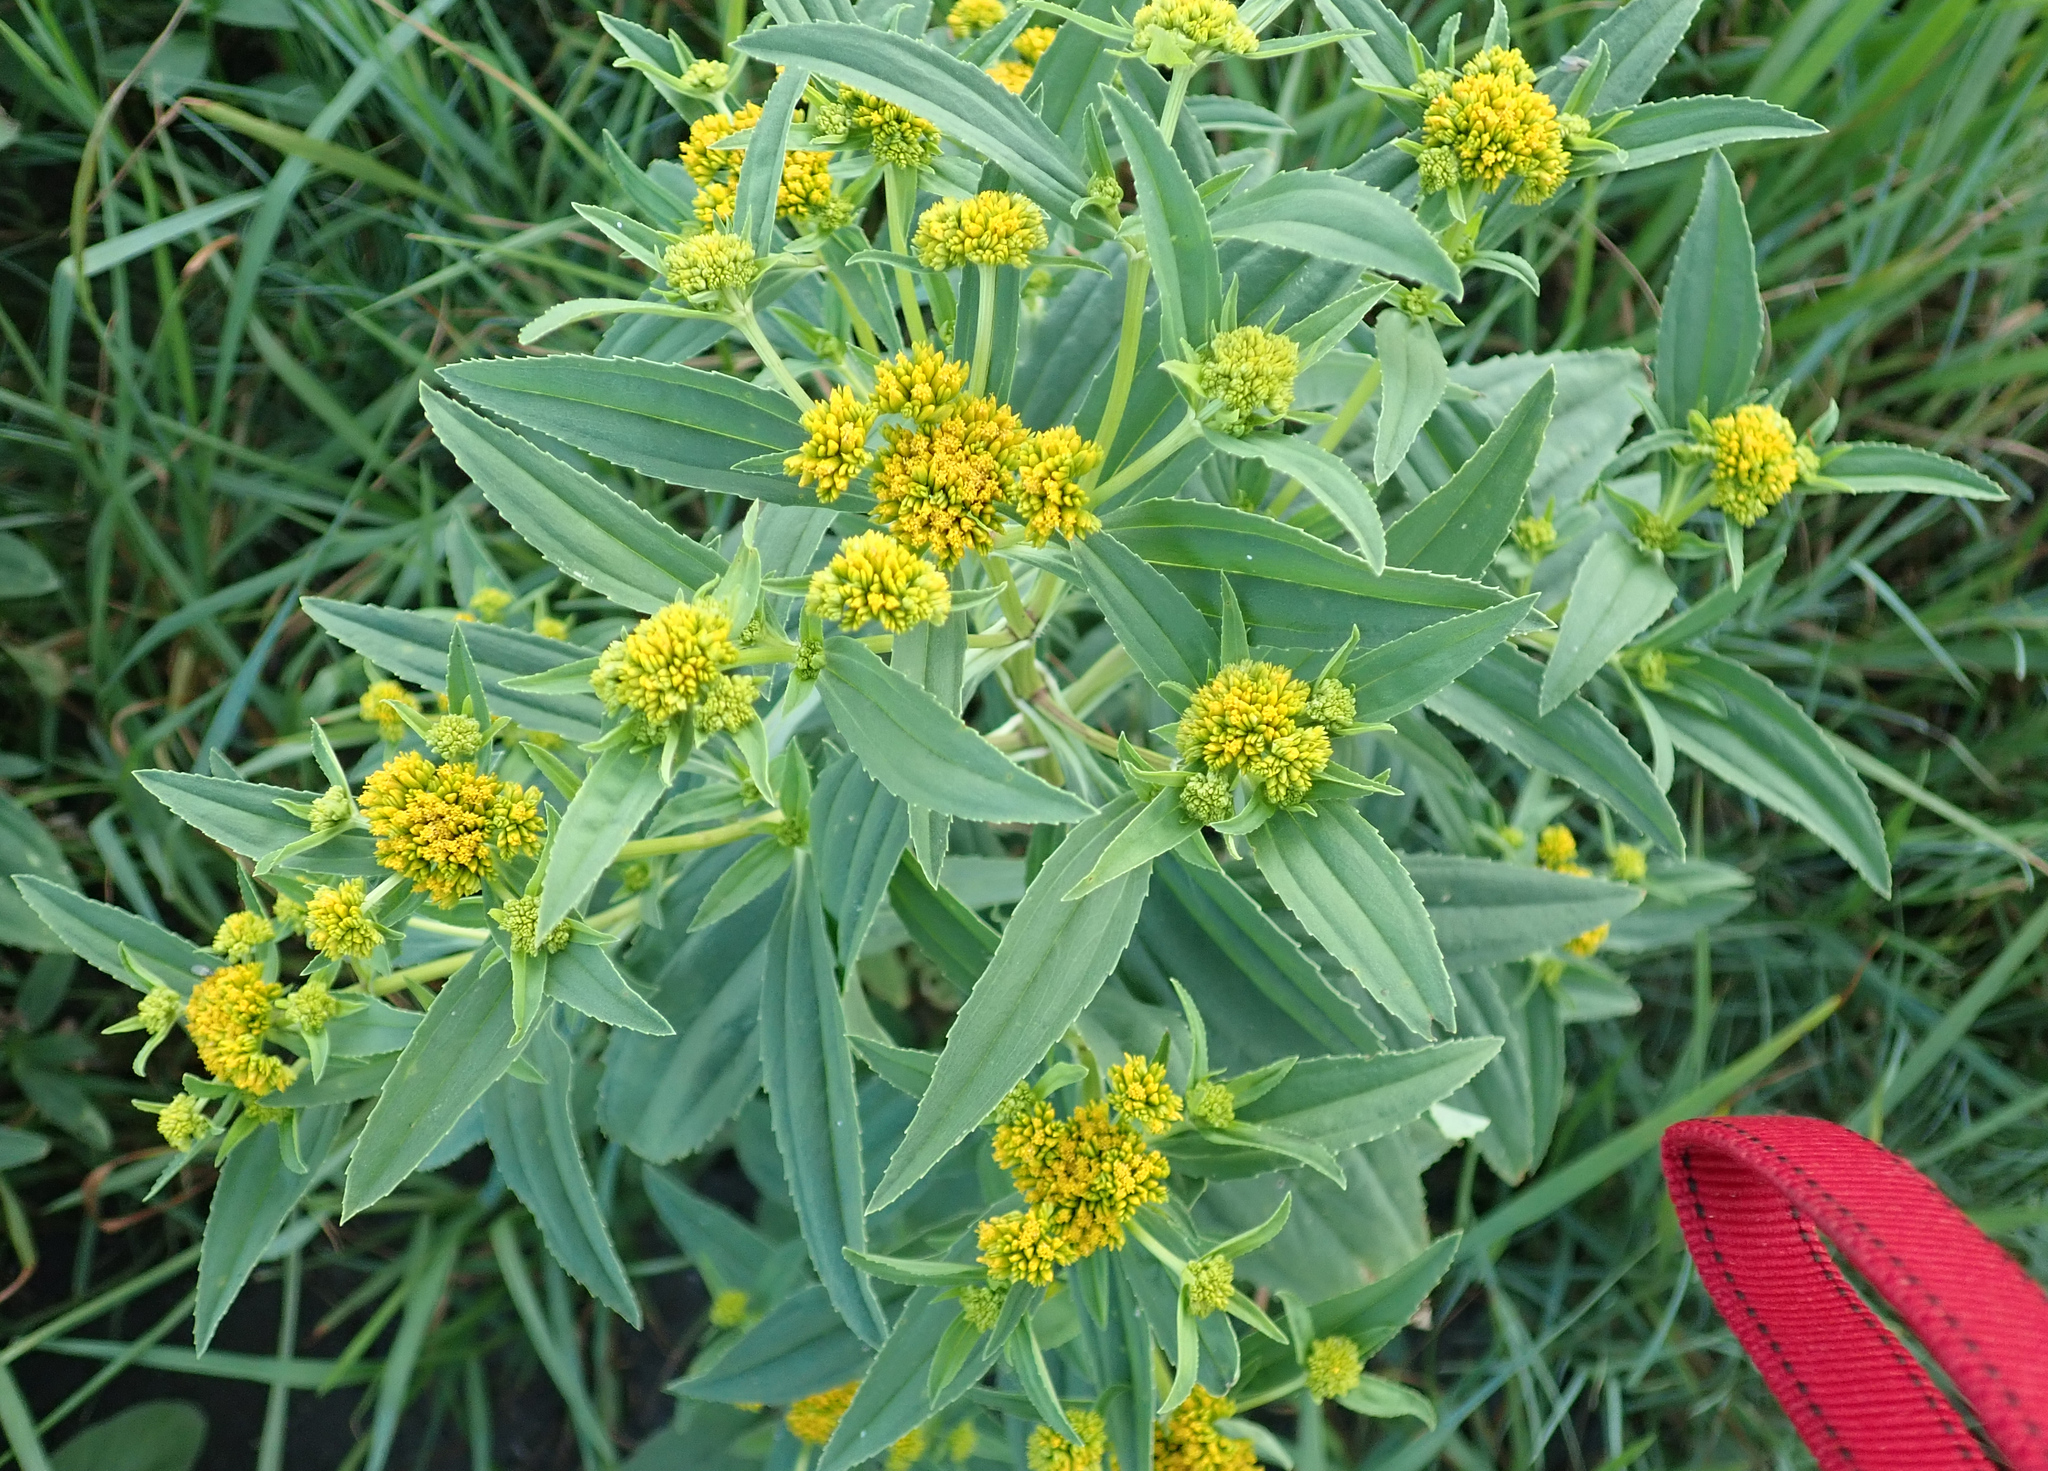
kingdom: Plantae
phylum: Tracheophyta
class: Magnoliopsida
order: Asterales
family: Asteraceae
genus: Flaveria
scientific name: Flaveria bidentis
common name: Coastal plain yellowtops
